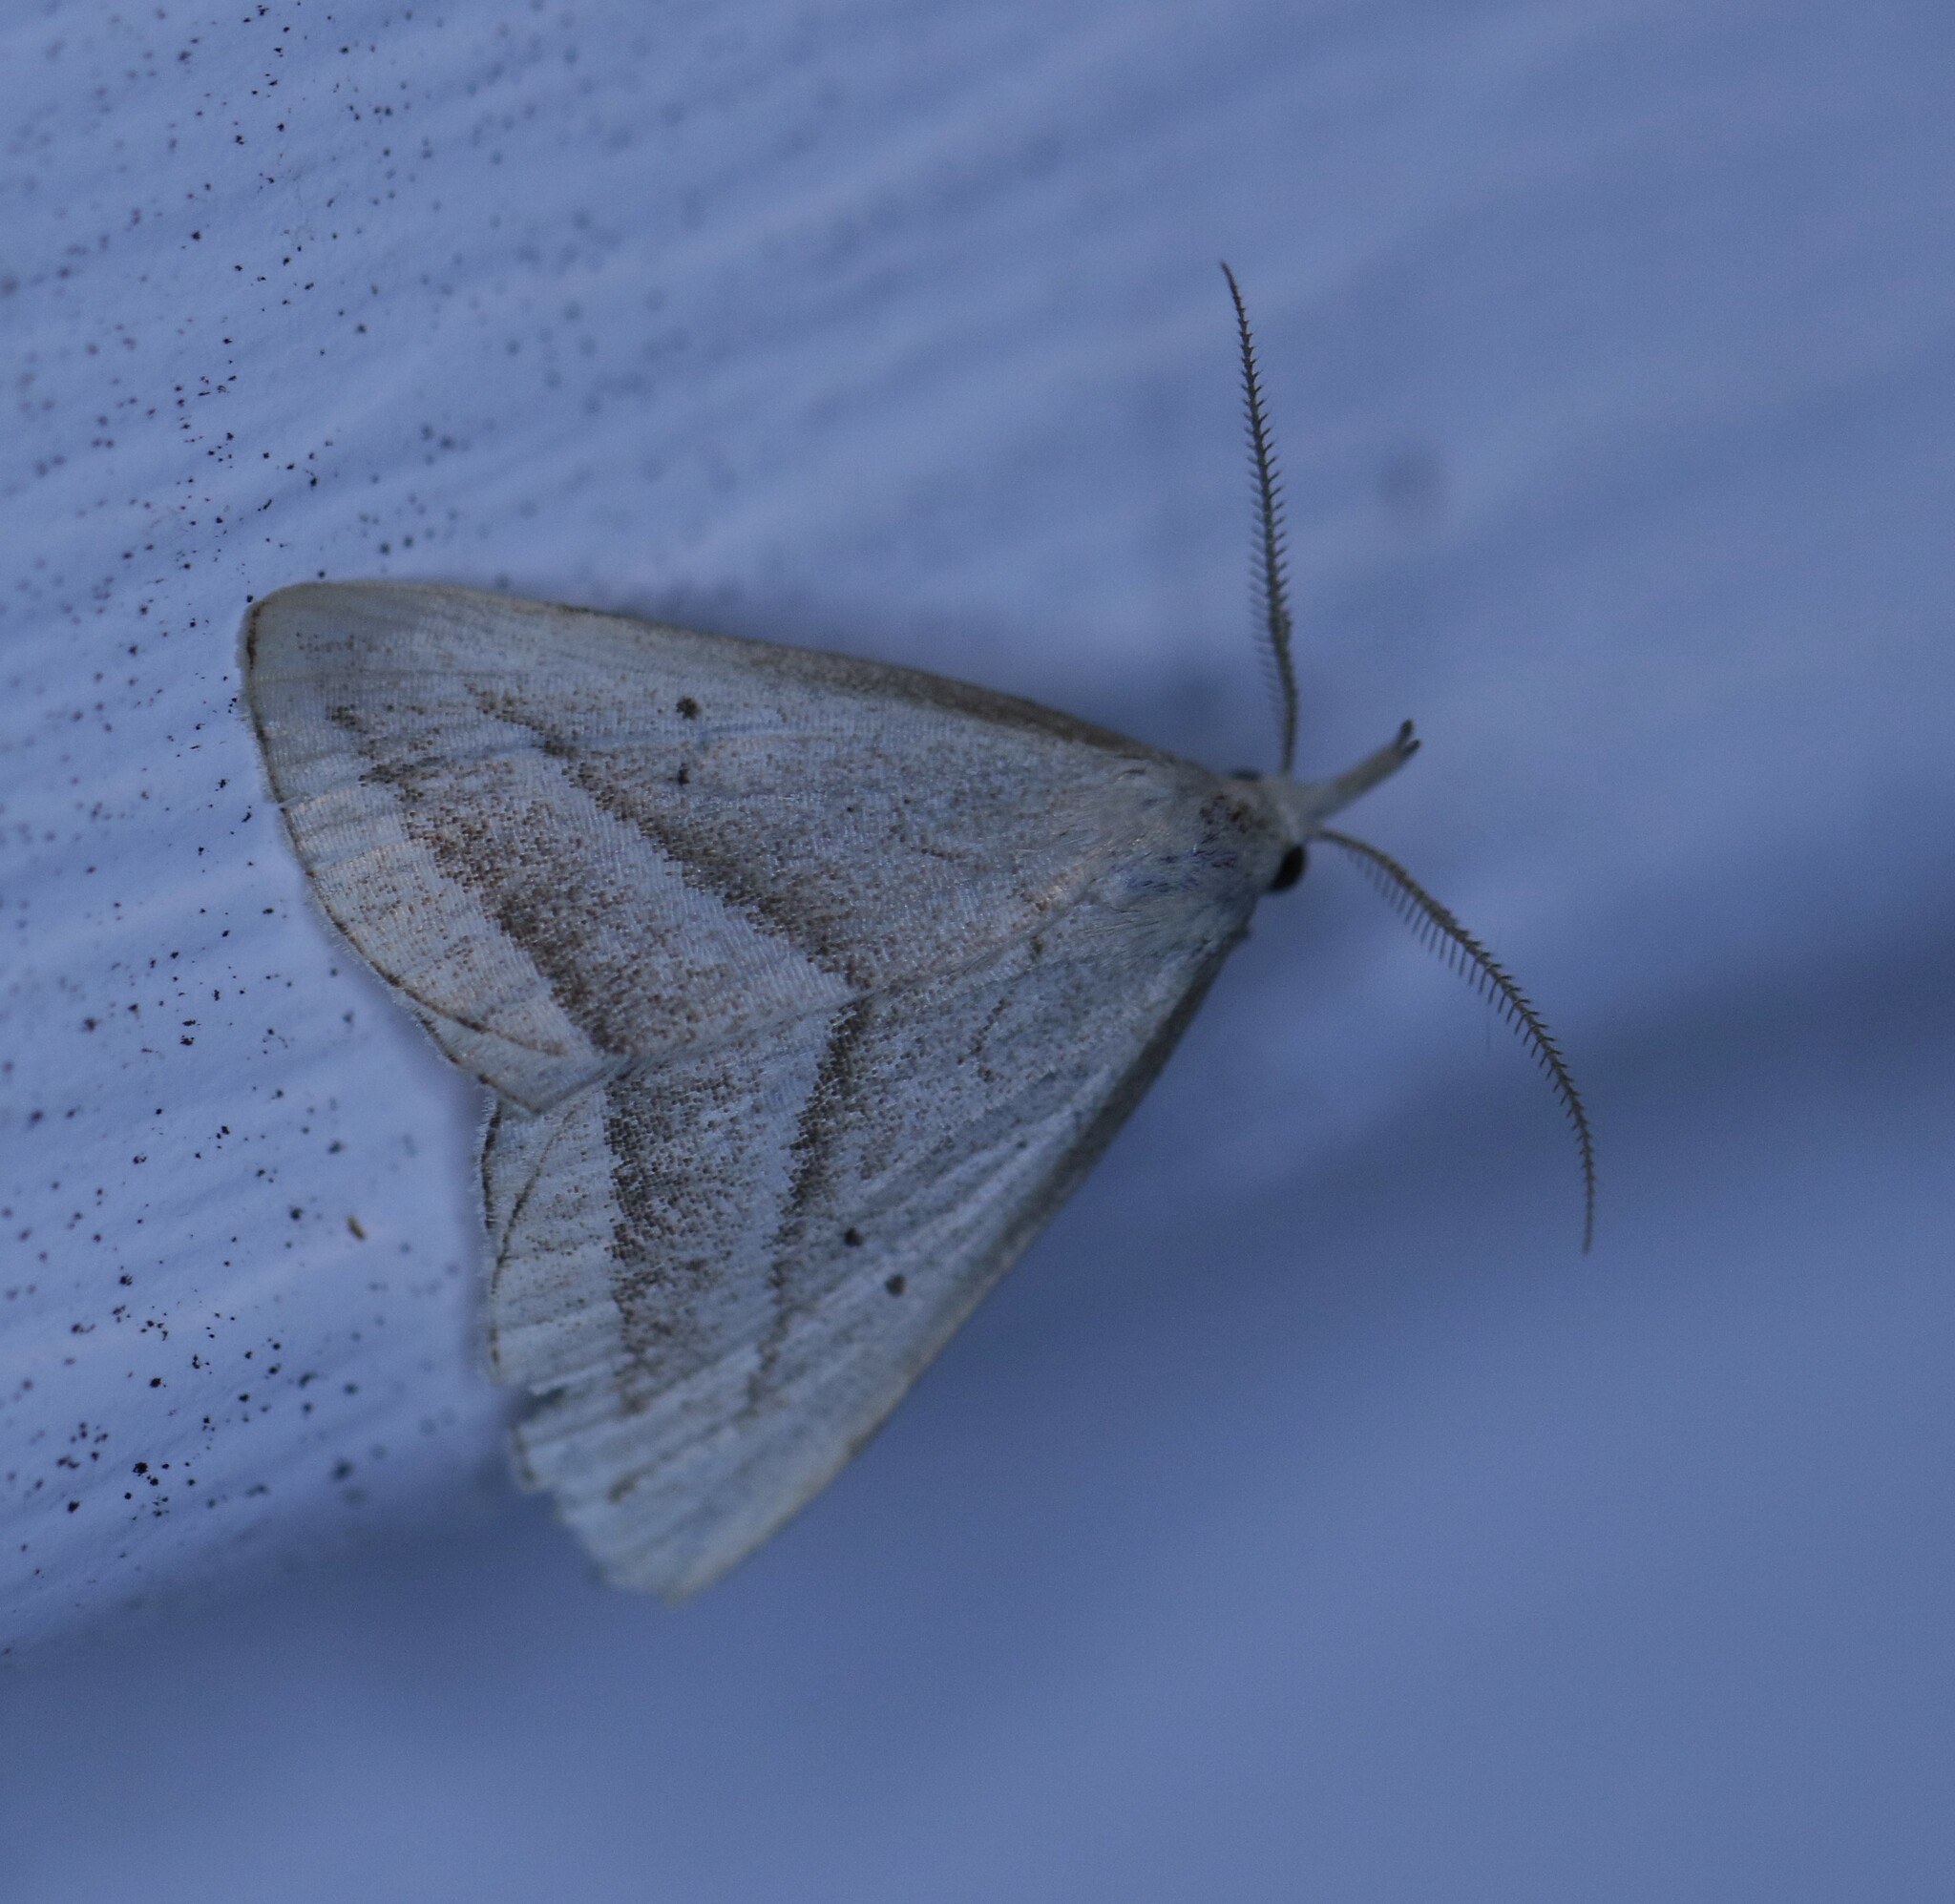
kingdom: Animalia
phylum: Arthropoda
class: Insecta
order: Lepidoptera
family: Erebidae
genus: Macrochilo
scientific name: Macrochilo absorptalis
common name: Slant-lined owlet
